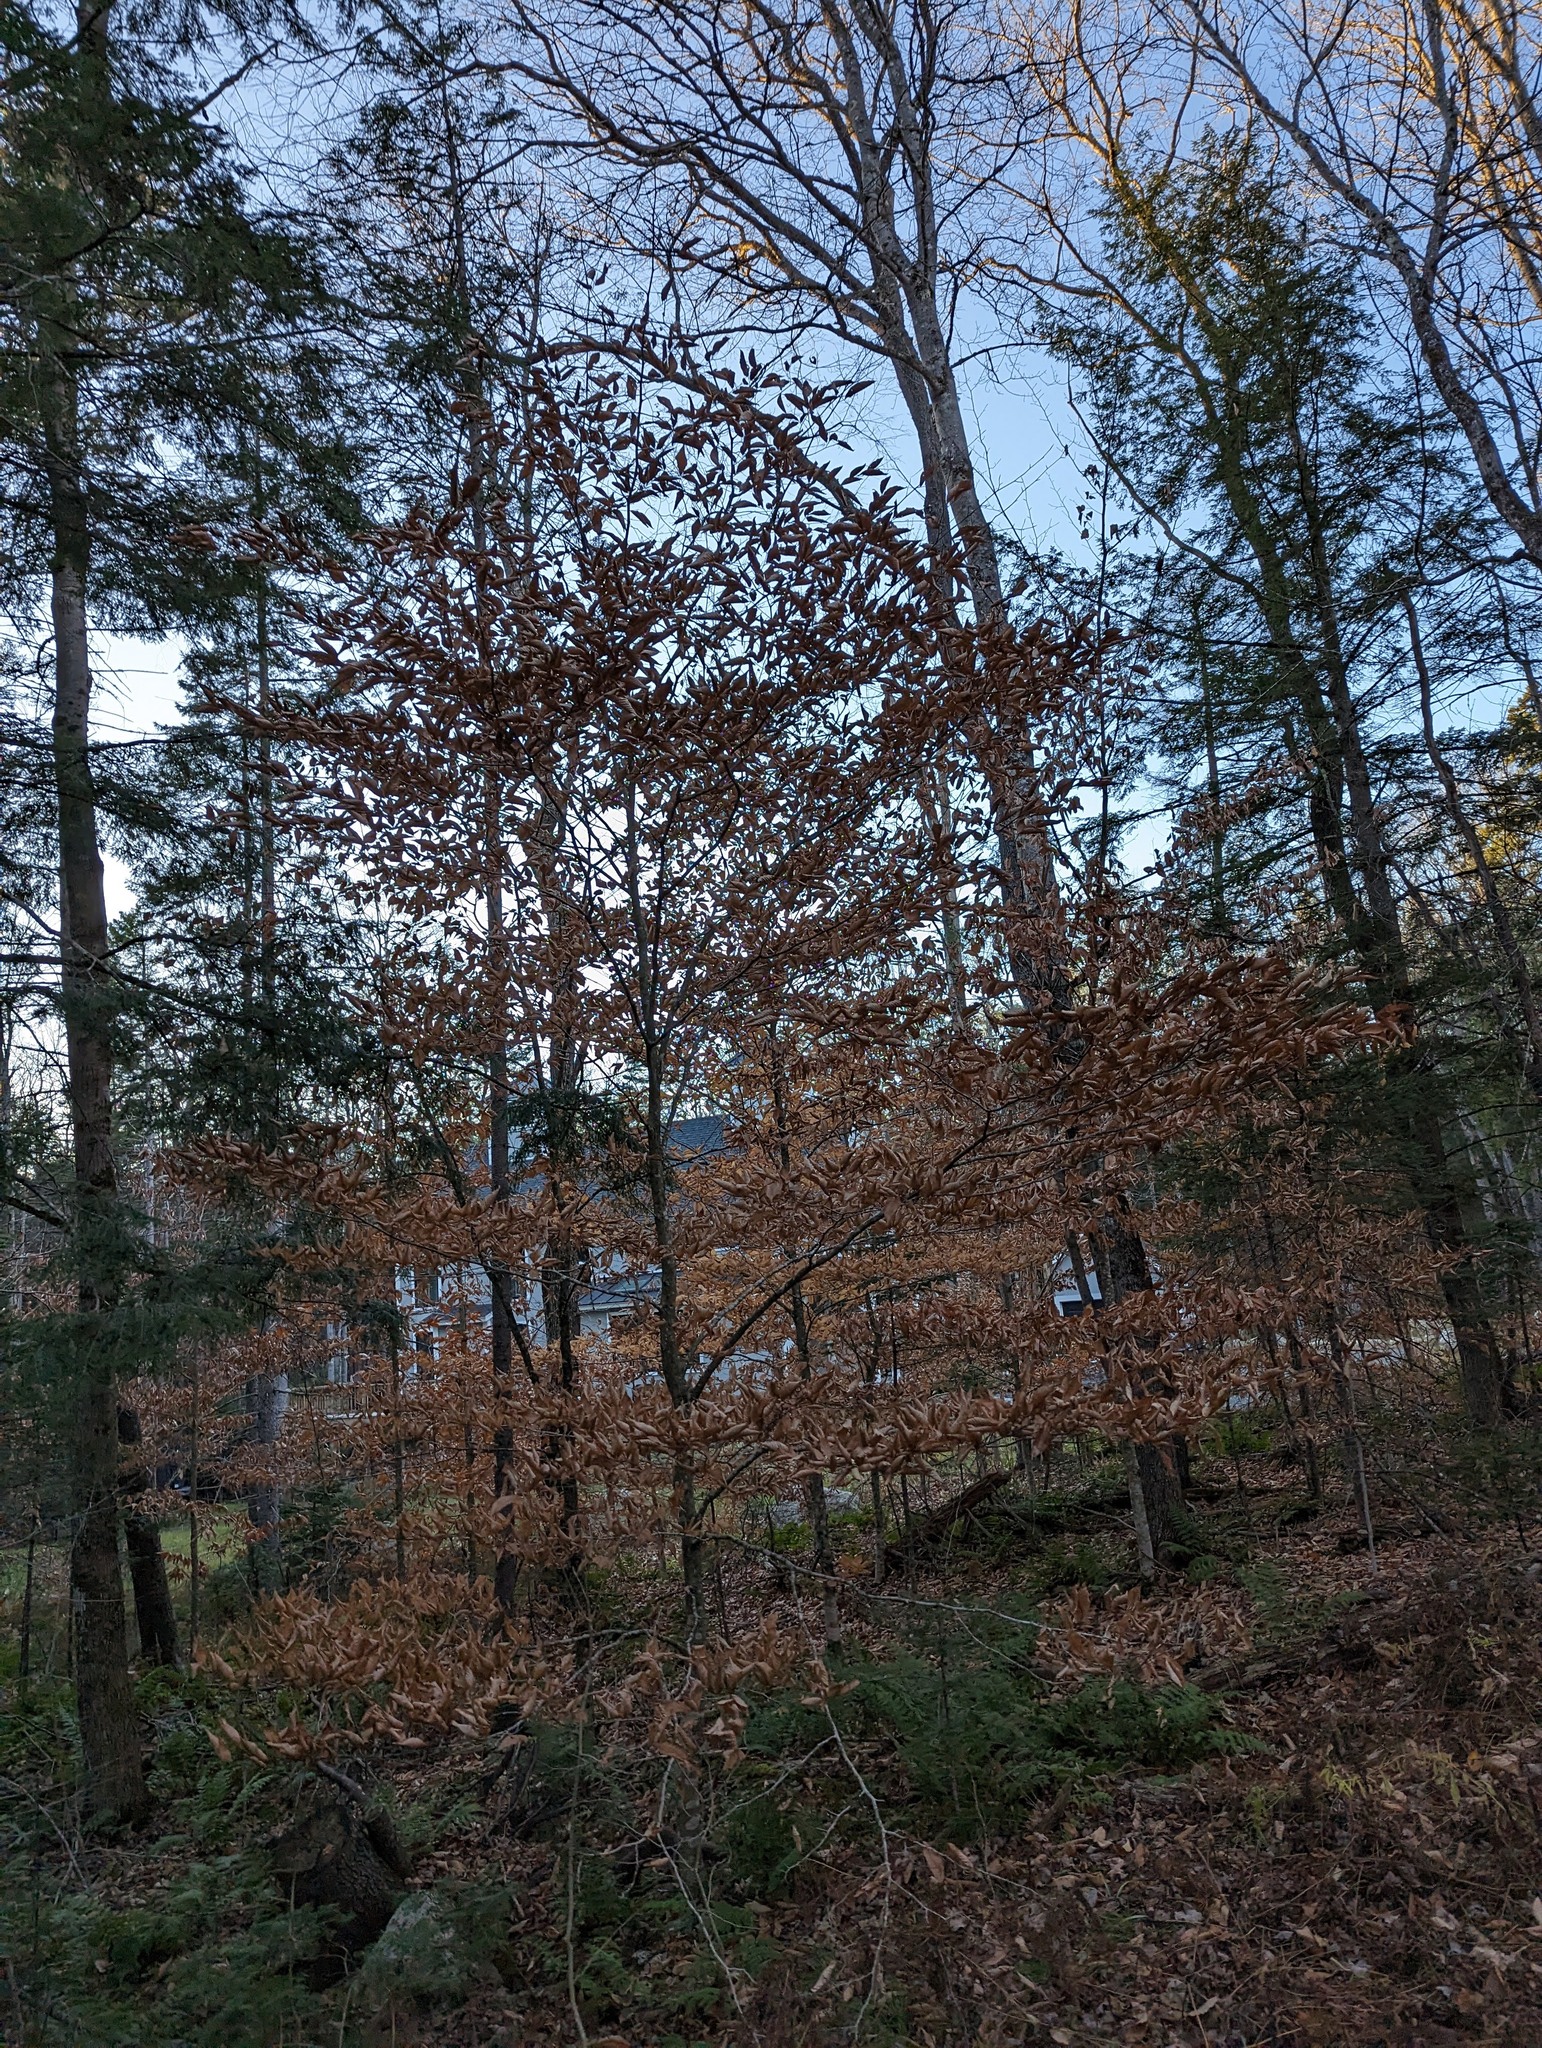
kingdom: Plantae
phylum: Tracheophyta
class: Magnoliopsida
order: Fagales
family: Fagaceae
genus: Fagus
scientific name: Fagus grandifolia
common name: American beech
